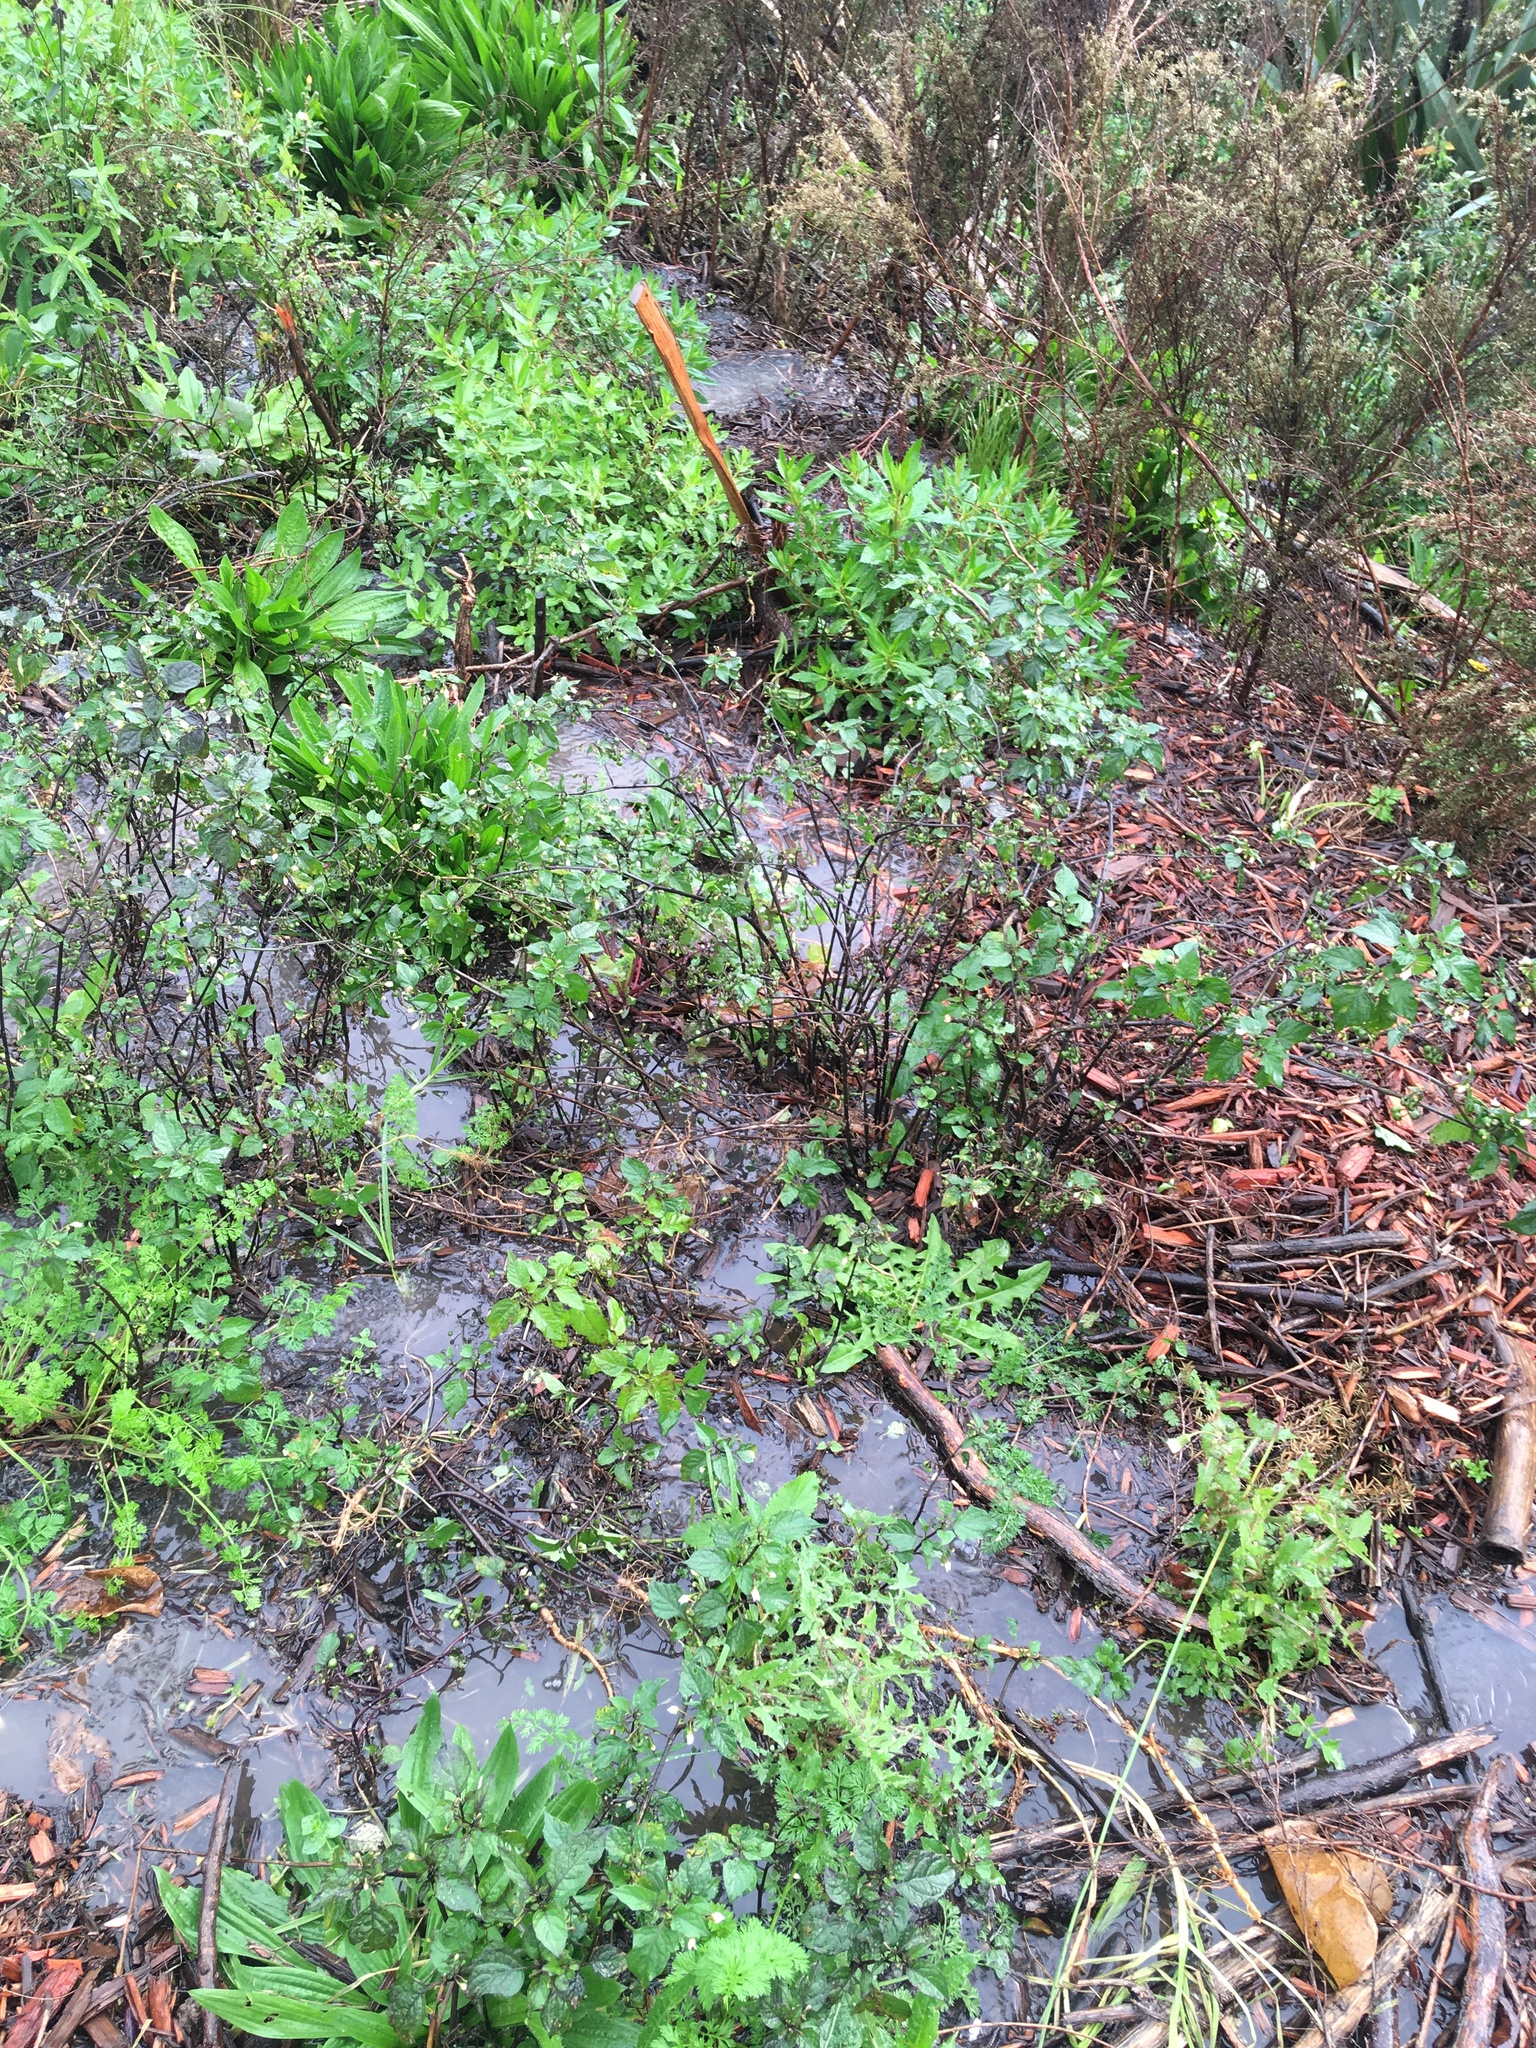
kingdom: Plantae
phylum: Tracheophyta
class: Magnoliopsida
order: Asterales
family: Asteraceae
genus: Taraxacum
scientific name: Taraxacum officinale
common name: Common dandelion
